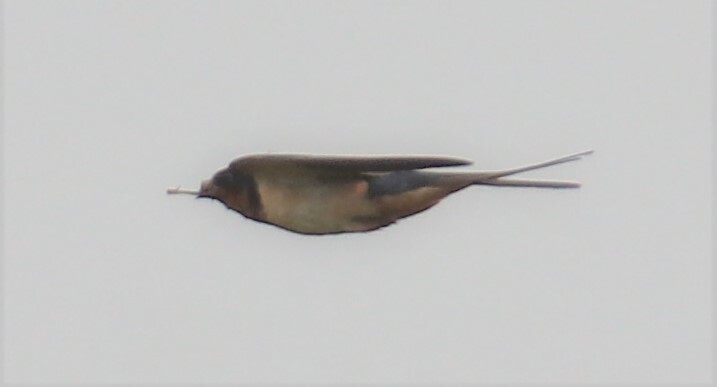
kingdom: Animalia
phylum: Chordata
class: Aves
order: Passeriformes
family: Hirundinidae
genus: Hirundo
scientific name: Hirundo rustica
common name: Barn swallow
